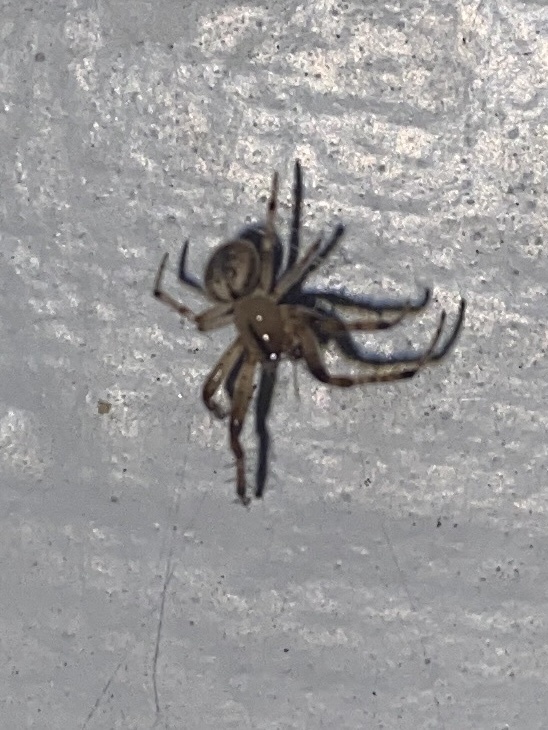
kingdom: Animalia
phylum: Arthropoda
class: Arachnida
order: Araneae
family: Araneidae
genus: Metazygia
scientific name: Metazygia zilloides
